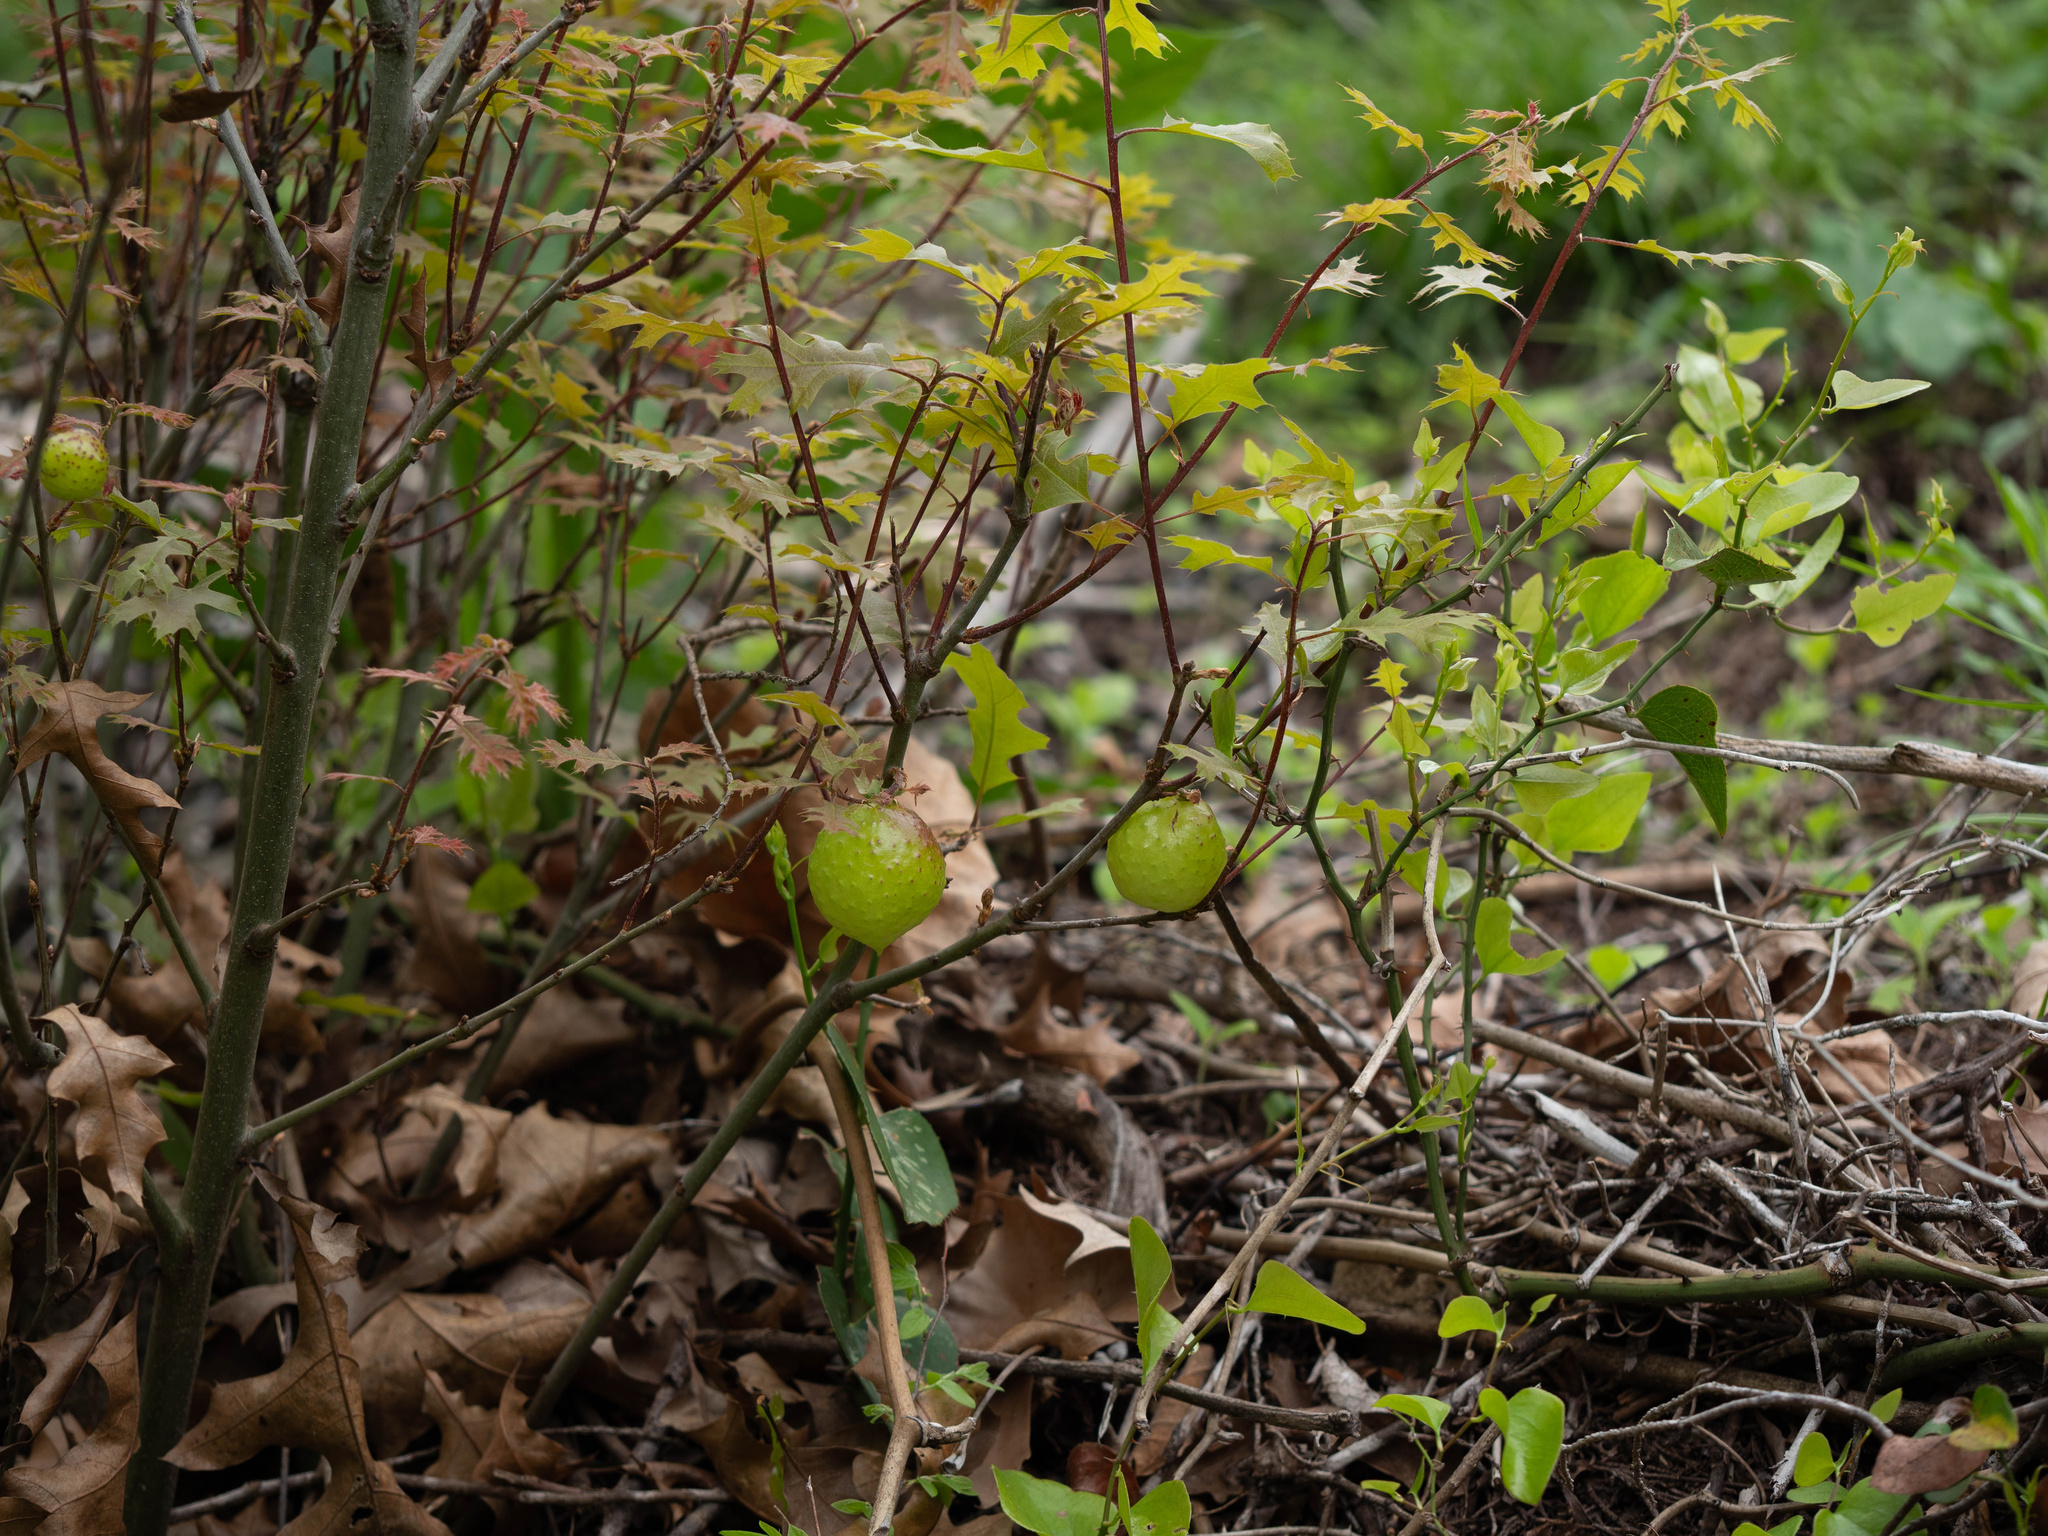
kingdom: Animalia
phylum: Arthropoda
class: Insecta
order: Hymenoptera
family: Cynipidae
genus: Amphibolips
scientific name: Amphibolips
